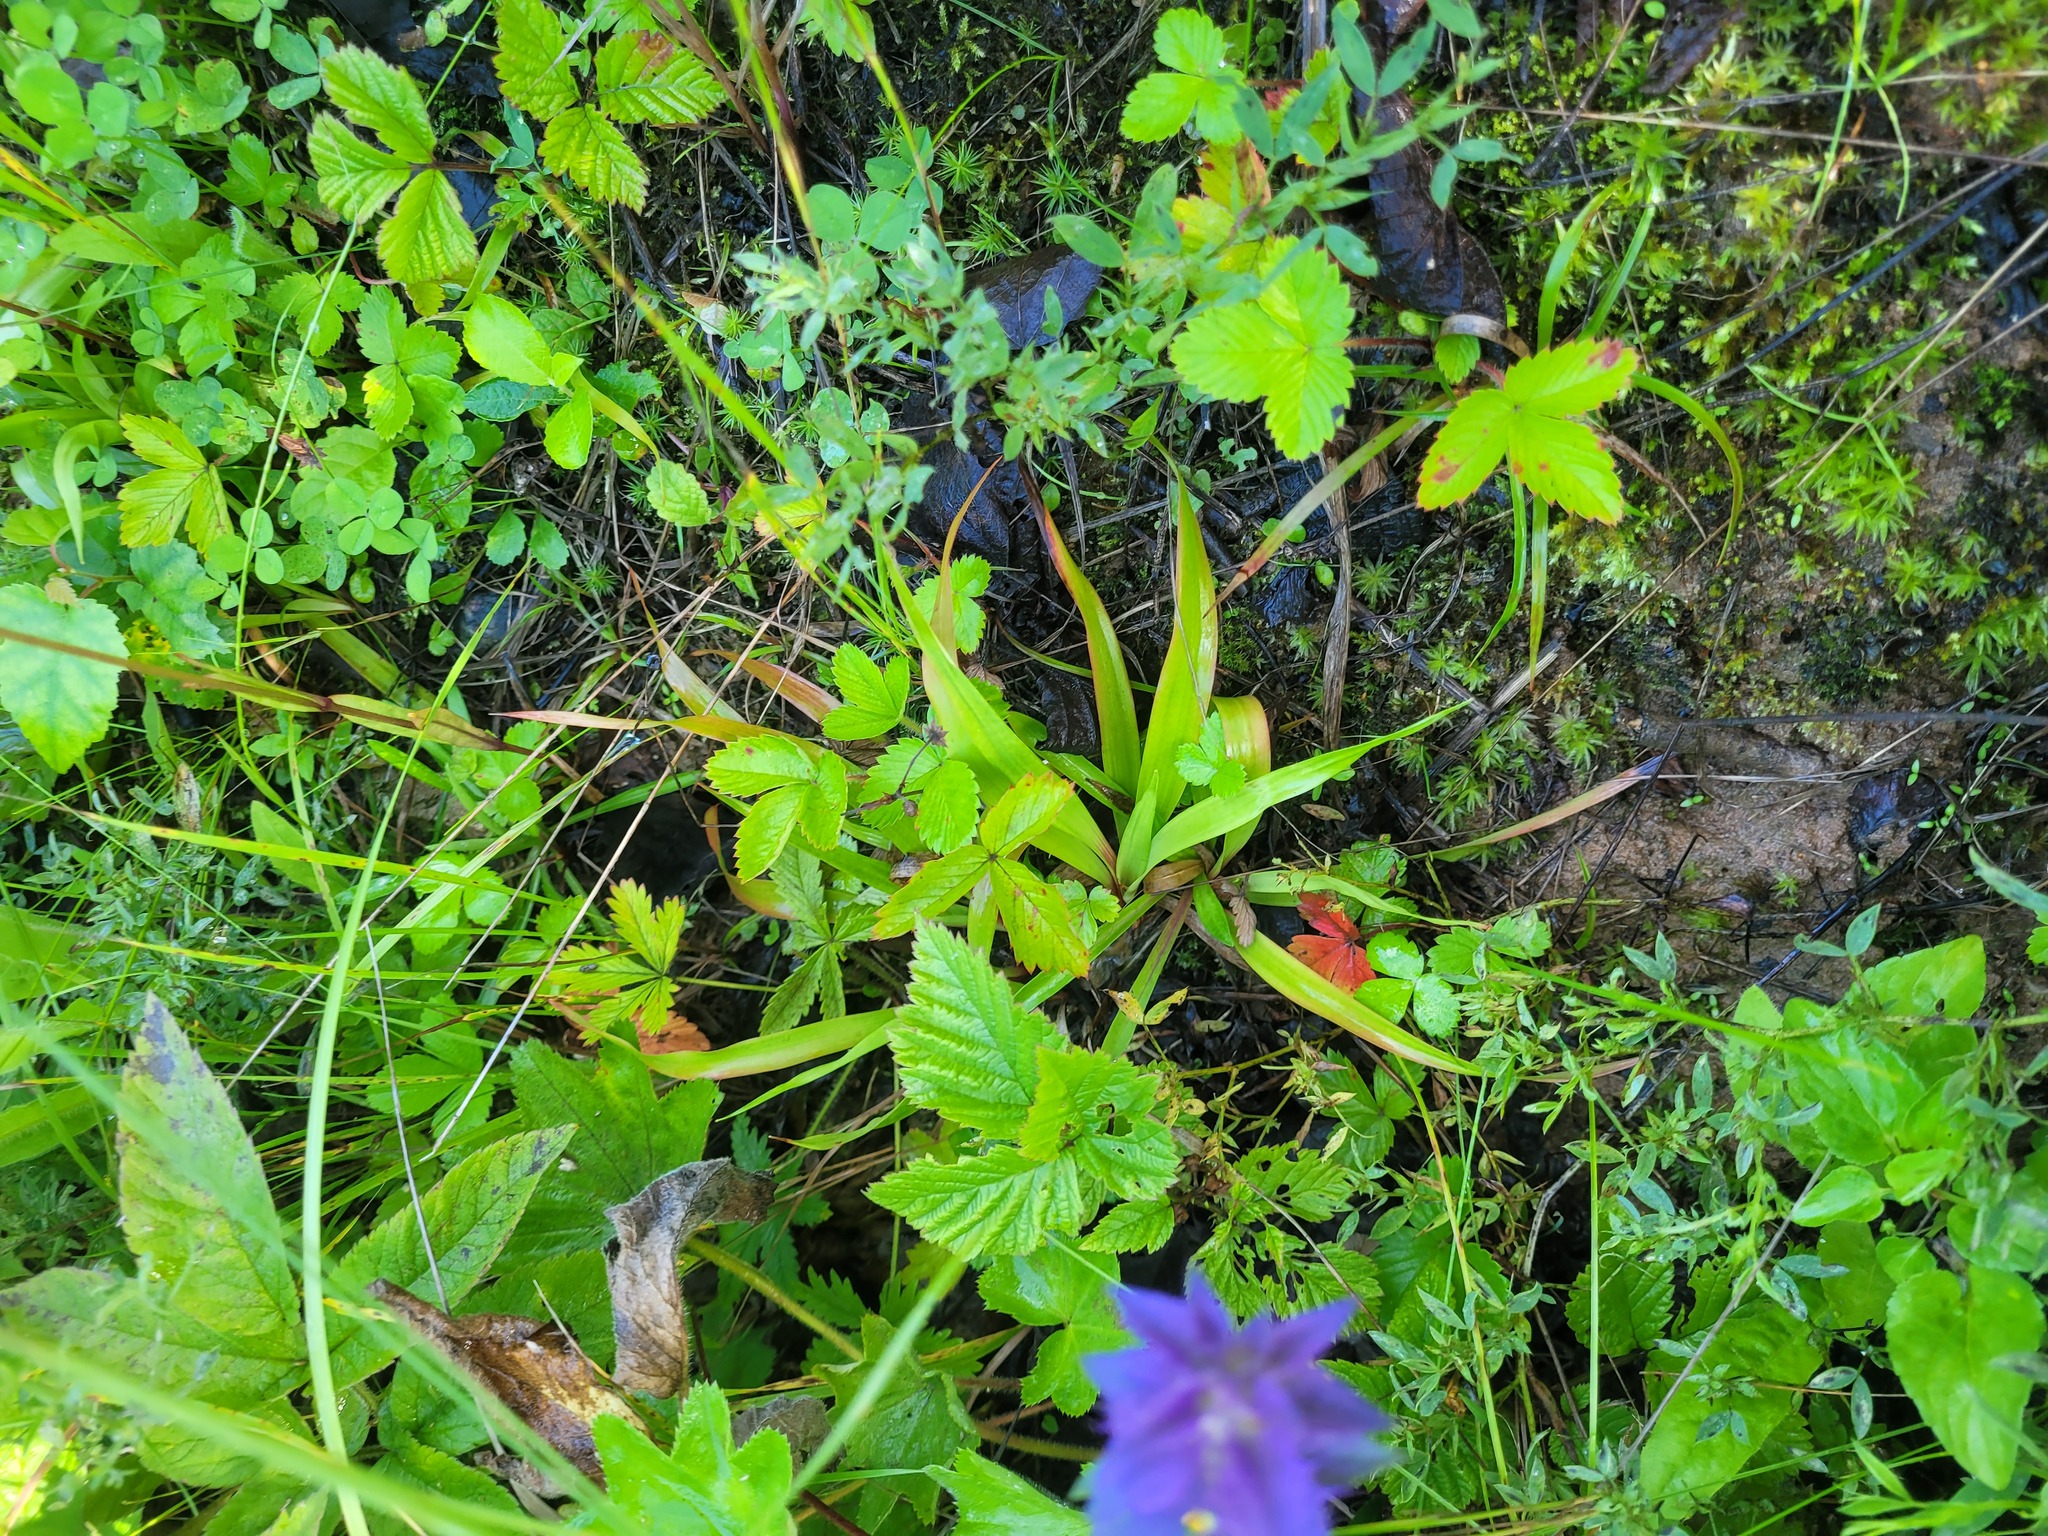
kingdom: Plantae
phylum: Tracheophyta
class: Liliopsida
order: Poales
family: Juncaceae
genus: Luzula
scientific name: Luzula pilosa
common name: Hairy wood-rush
